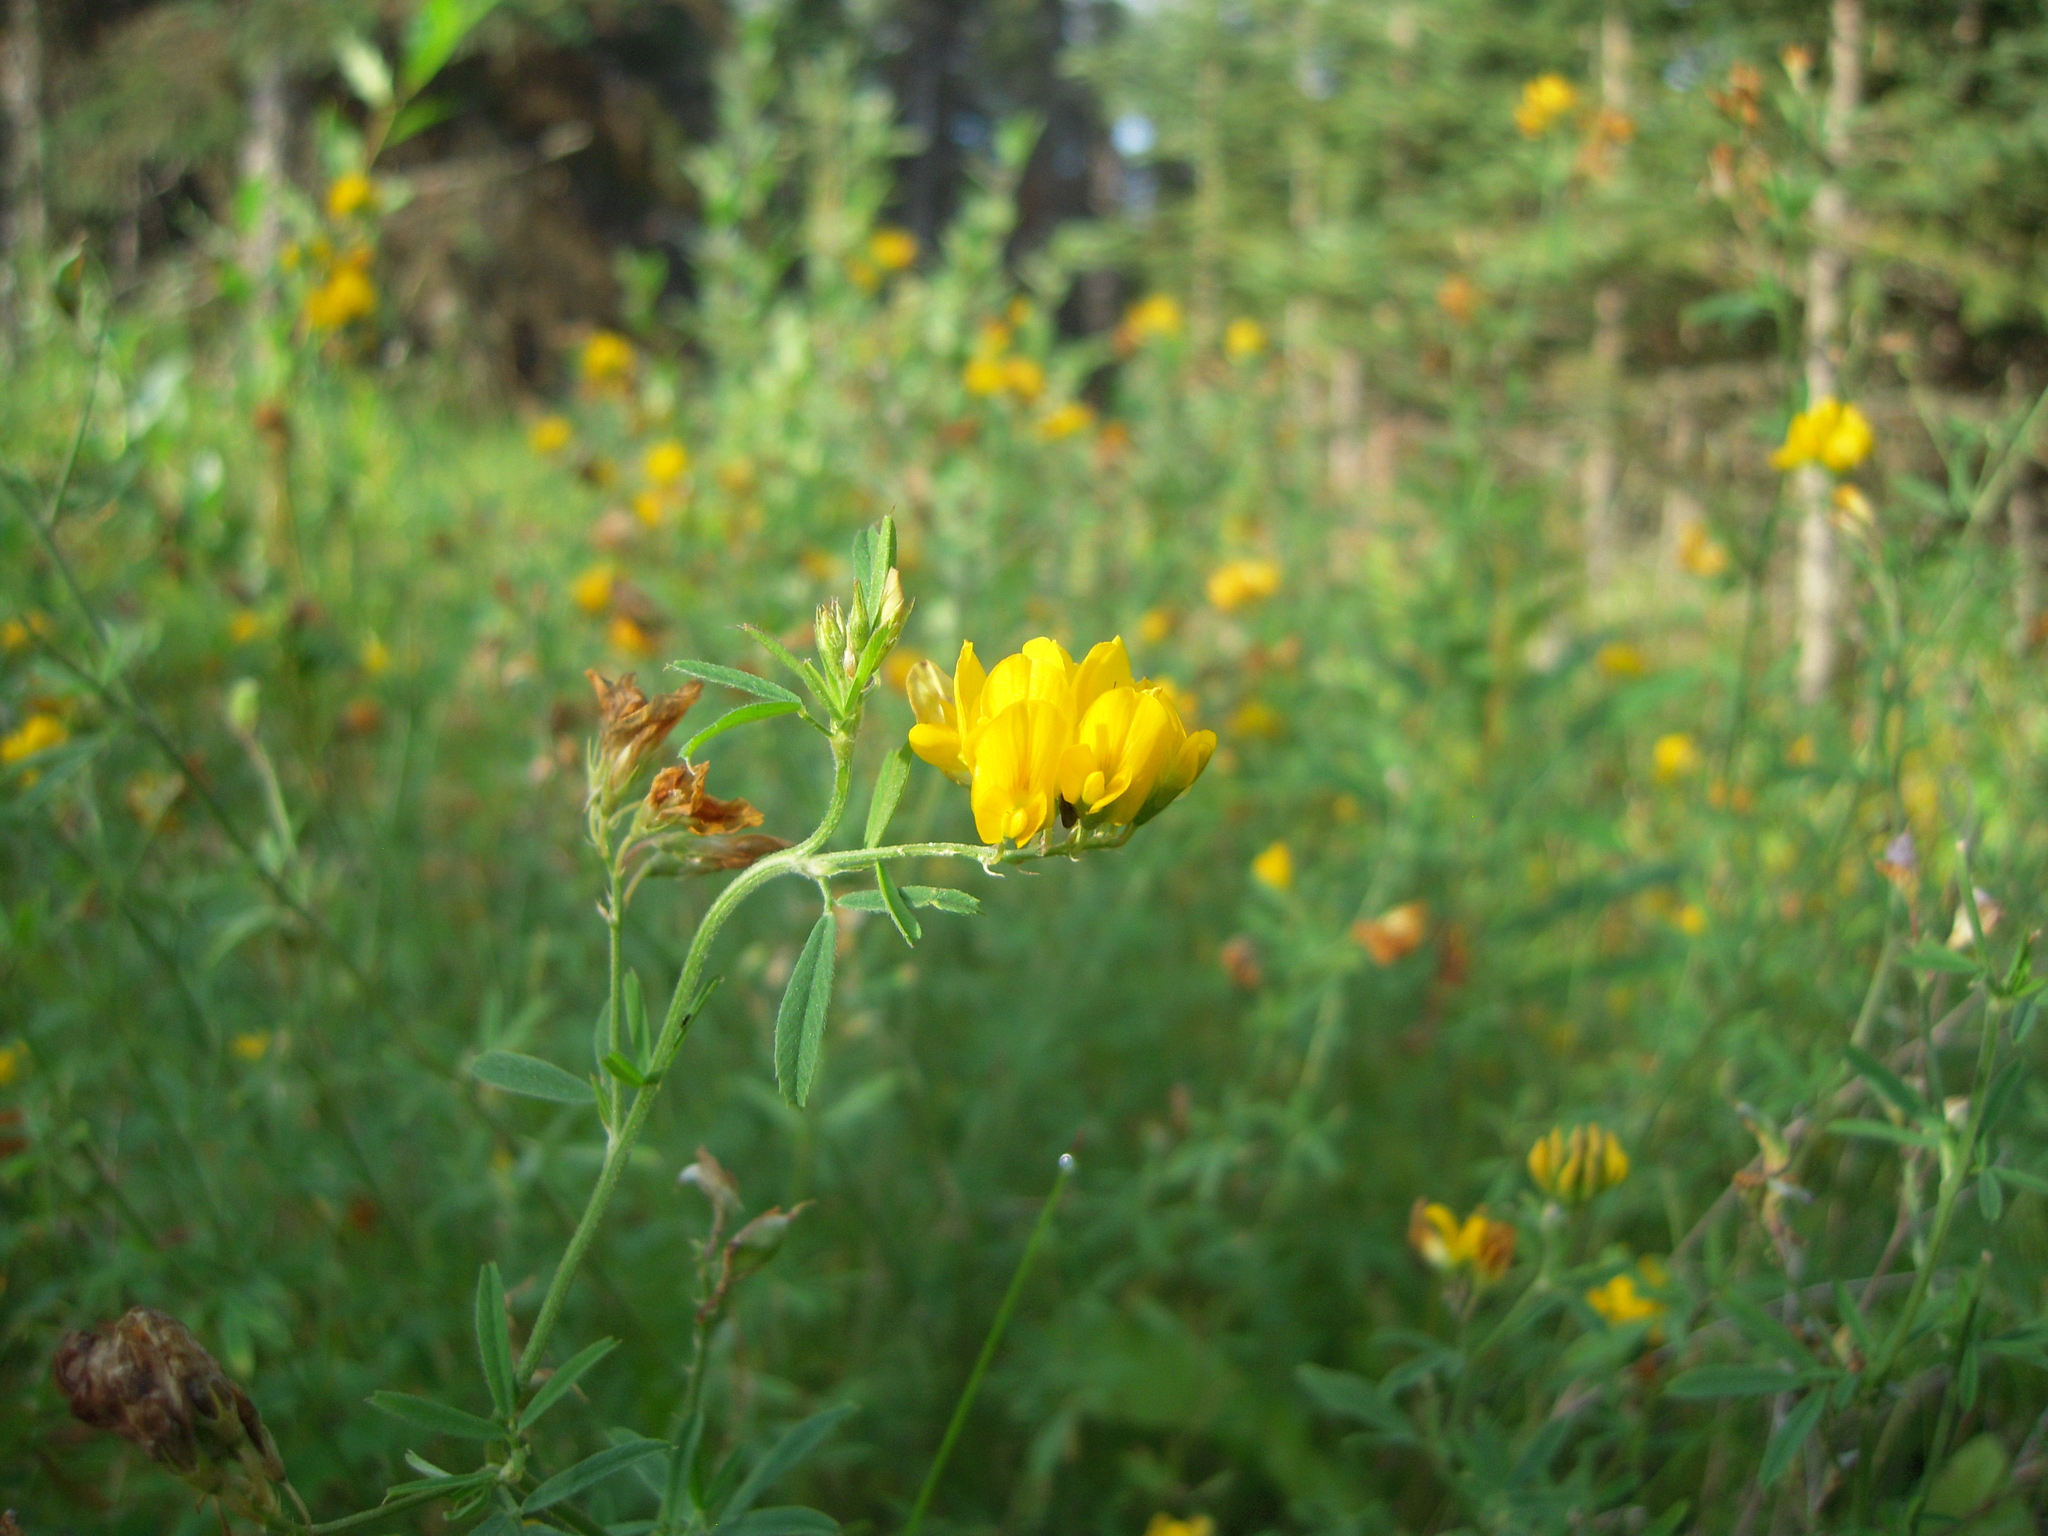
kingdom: Plantae
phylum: Tracheophyta
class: Magnoliopsida
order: Fabales
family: Fabaceae
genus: Medicago
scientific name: Medicago falcata
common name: Sickle medick
